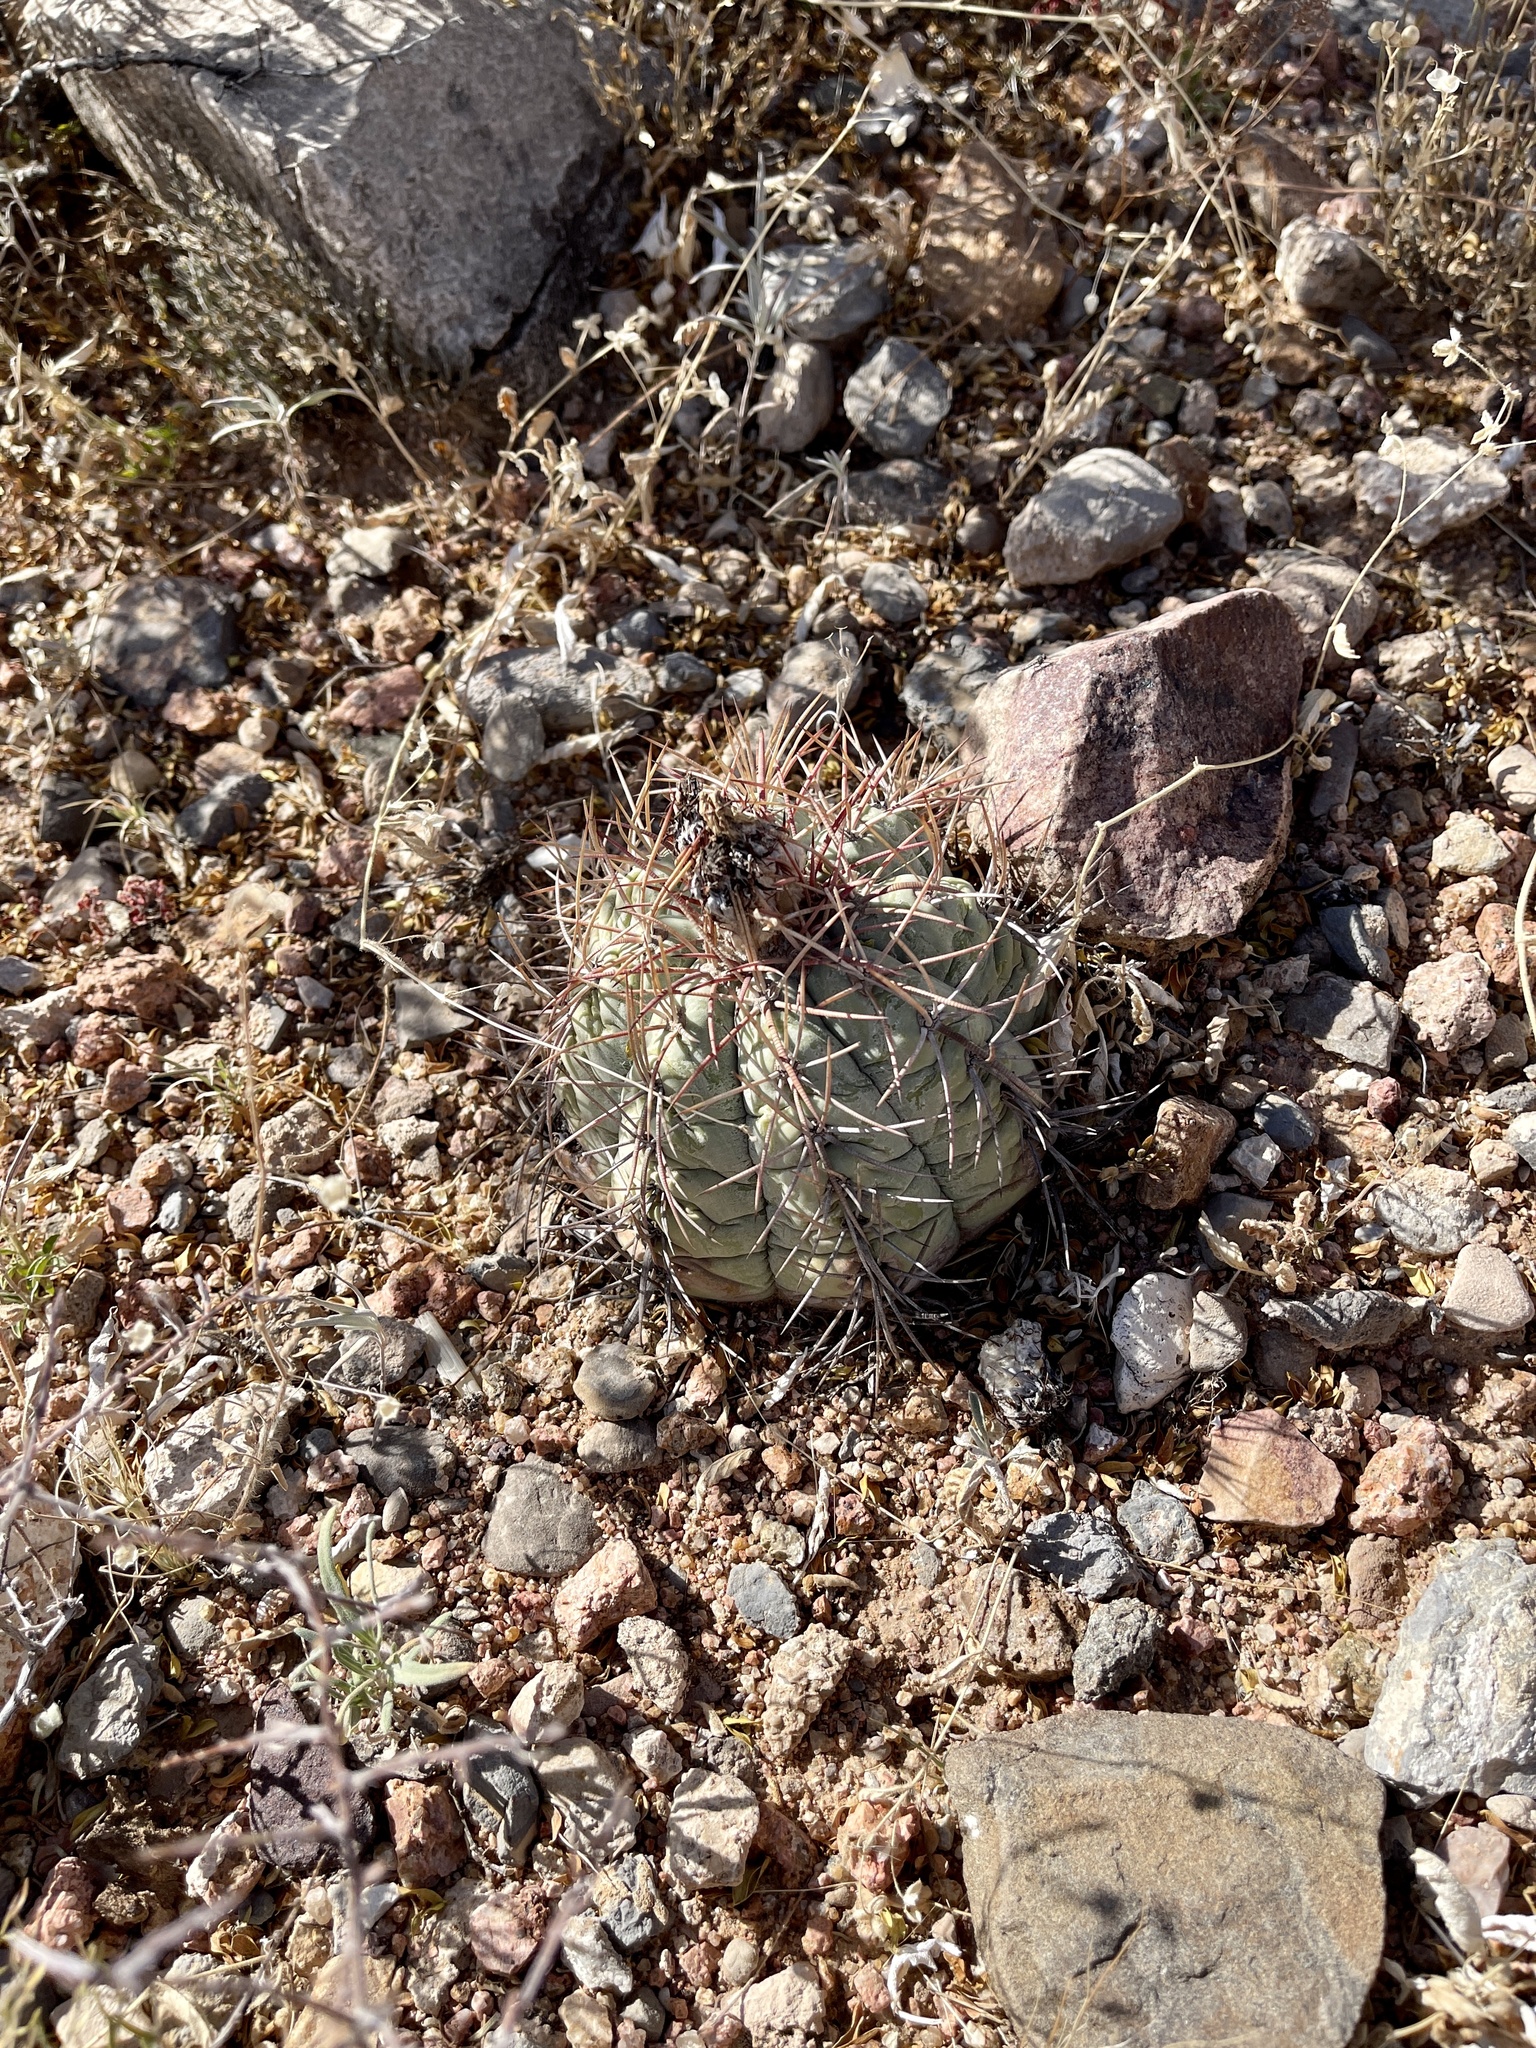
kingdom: Plantae
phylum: Tracheophyta
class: Magnoliopsida
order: Caryophyllales
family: Cactaceae
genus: Echinocactus
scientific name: Echinocactus horizonthalonius
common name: Devilshead
